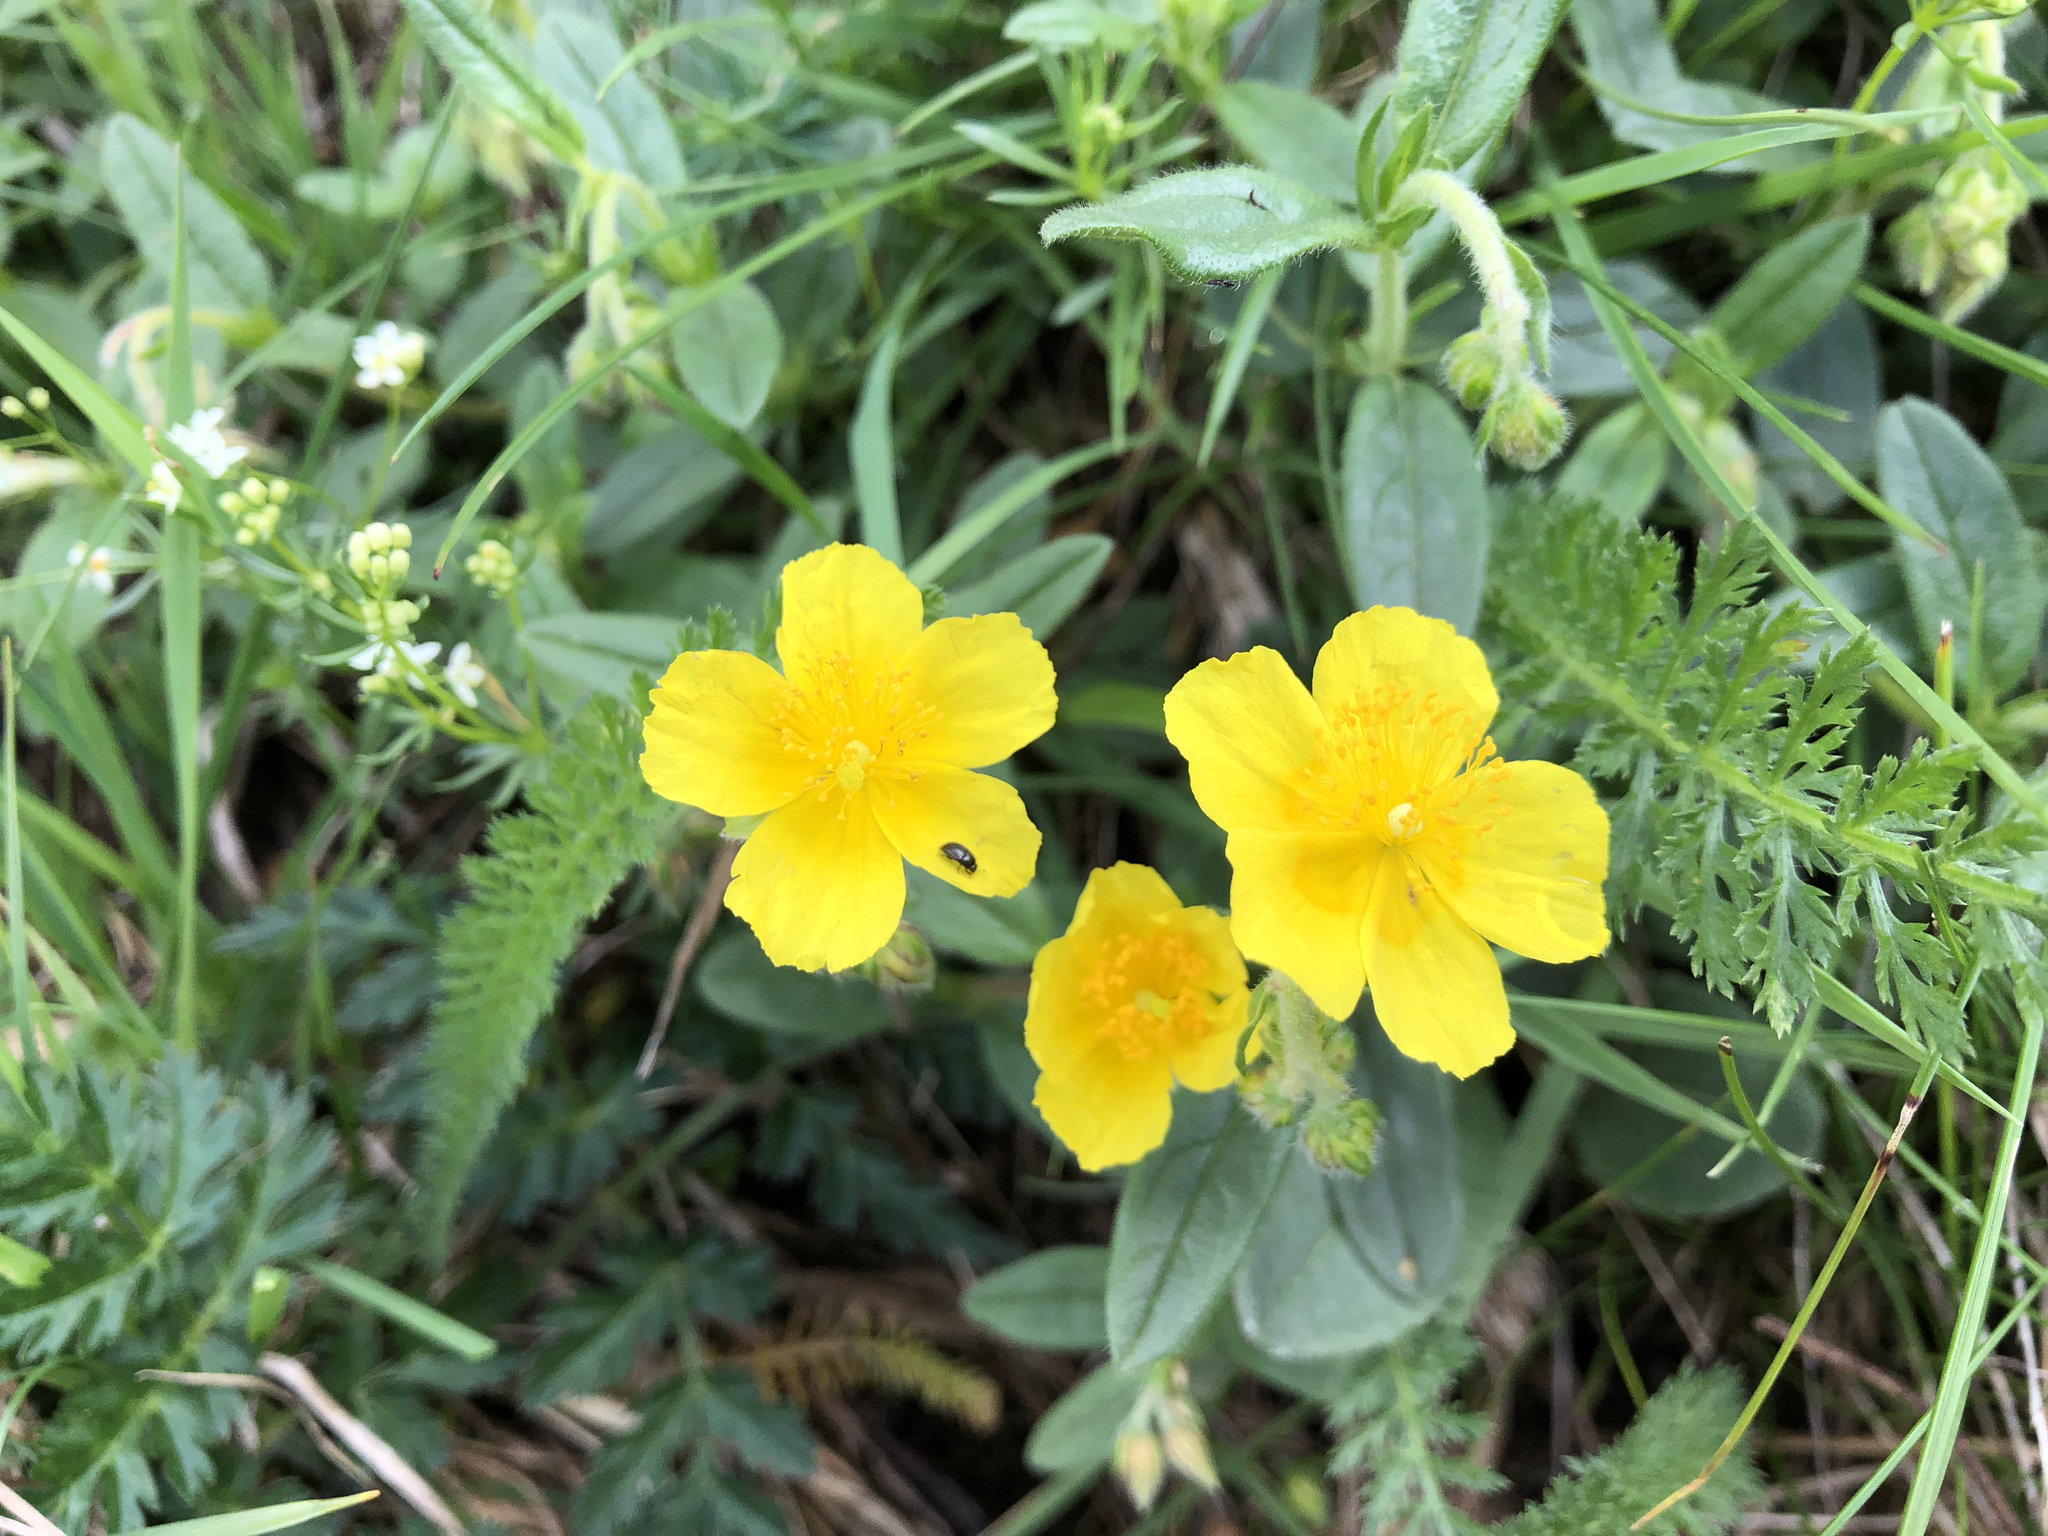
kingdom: Plantae
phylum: Tracheophyta
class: Magnoliopsida
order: Malvales
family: Cistaceae
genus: Helianthemum
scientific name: Helianthemum nummularium
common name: Common rock-rose
